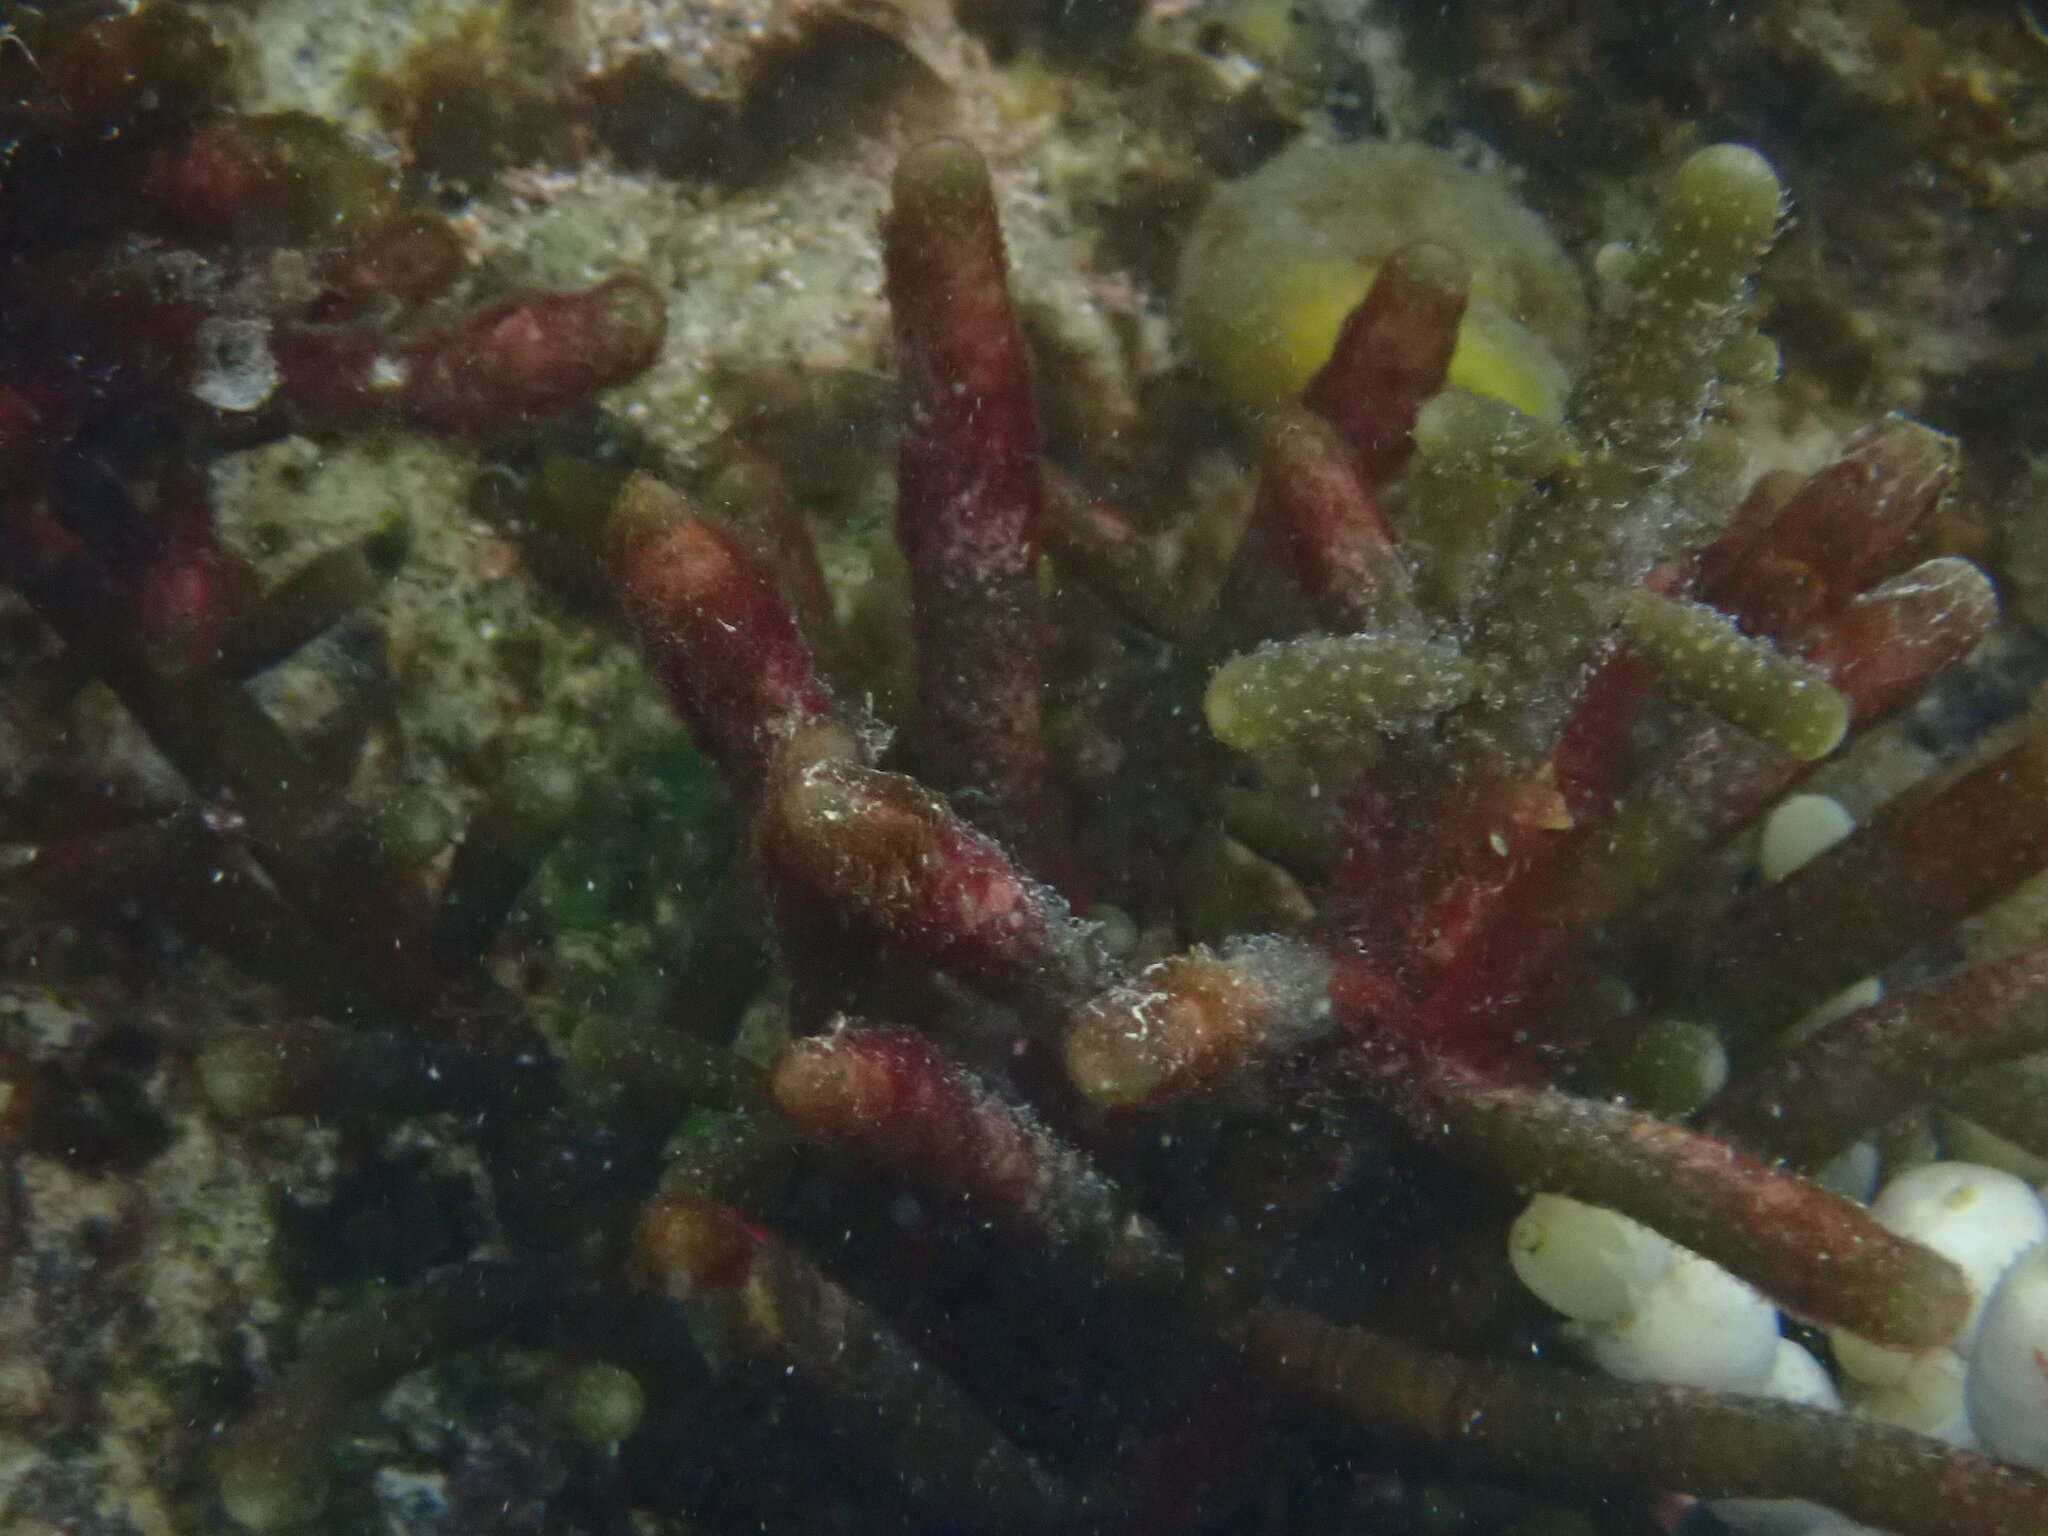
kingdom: Chromista
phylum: Ochrophyta
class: Phaeophyceae
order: Scytothamnales
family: Splachnidiaceae
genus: Splachnidium
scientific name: Splachnidium rugosum
